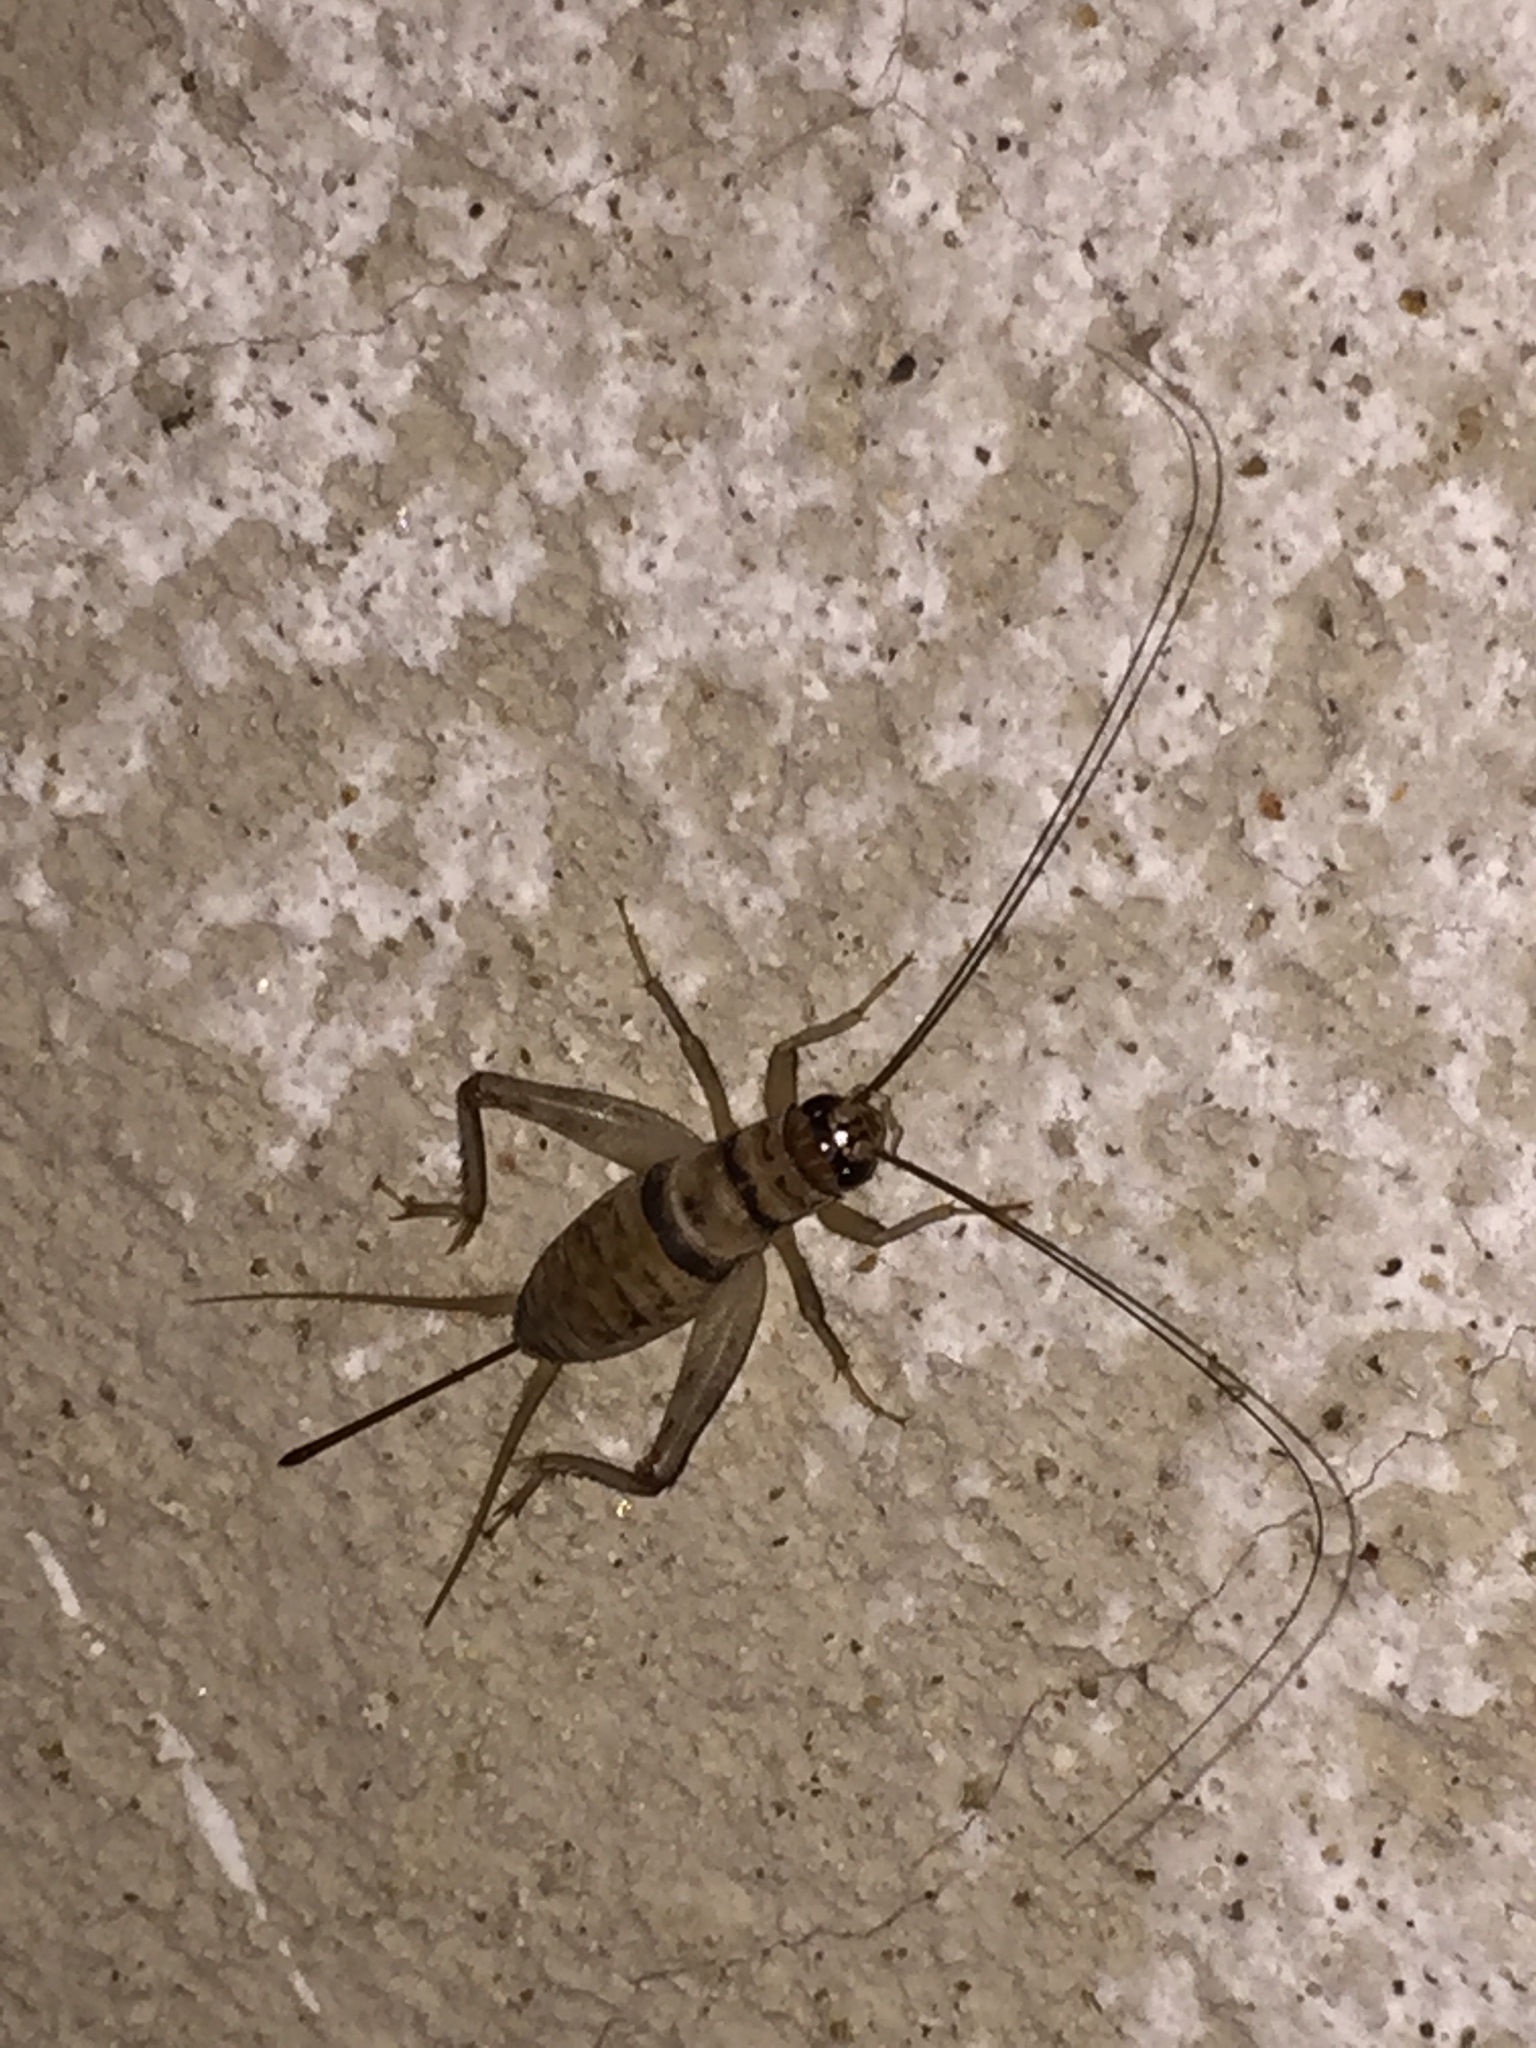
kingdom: Animalia
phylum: Arthropoda
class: Insecta
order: Orthoptera
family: Gryllidae
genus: Gryllodes
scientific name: Gryllodes sigillatus
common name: Tropical house cricket
